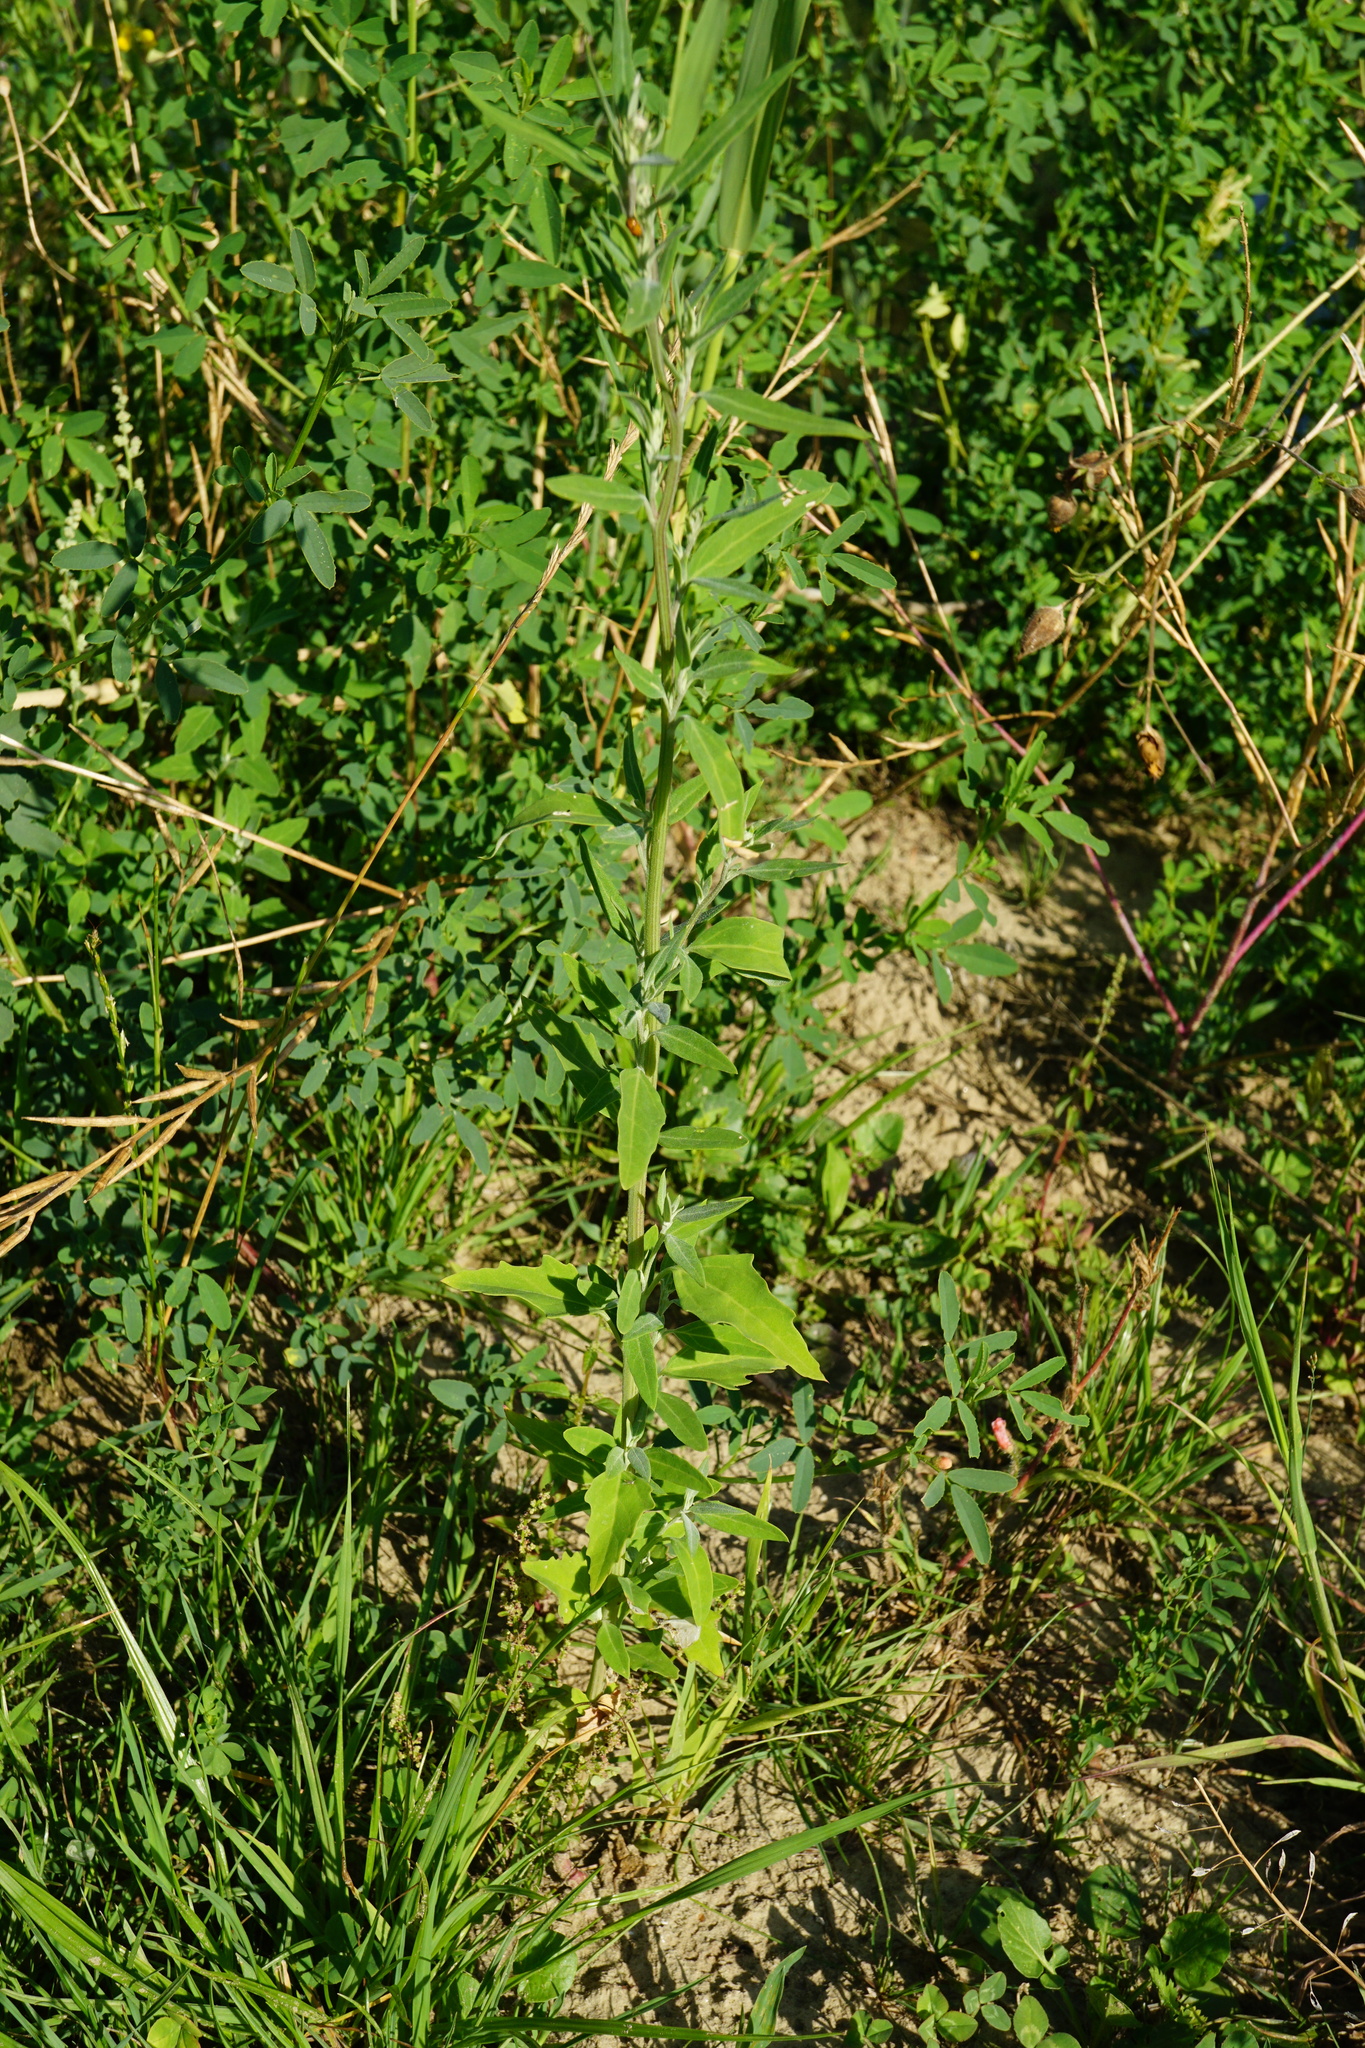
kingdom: Plantae
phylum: Tracheophyta
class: Magnoliopsida
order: Caryophyllales
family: Amaranthaceae
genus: Chenopodium
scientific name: Chenopodium album
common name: Fat-hen
